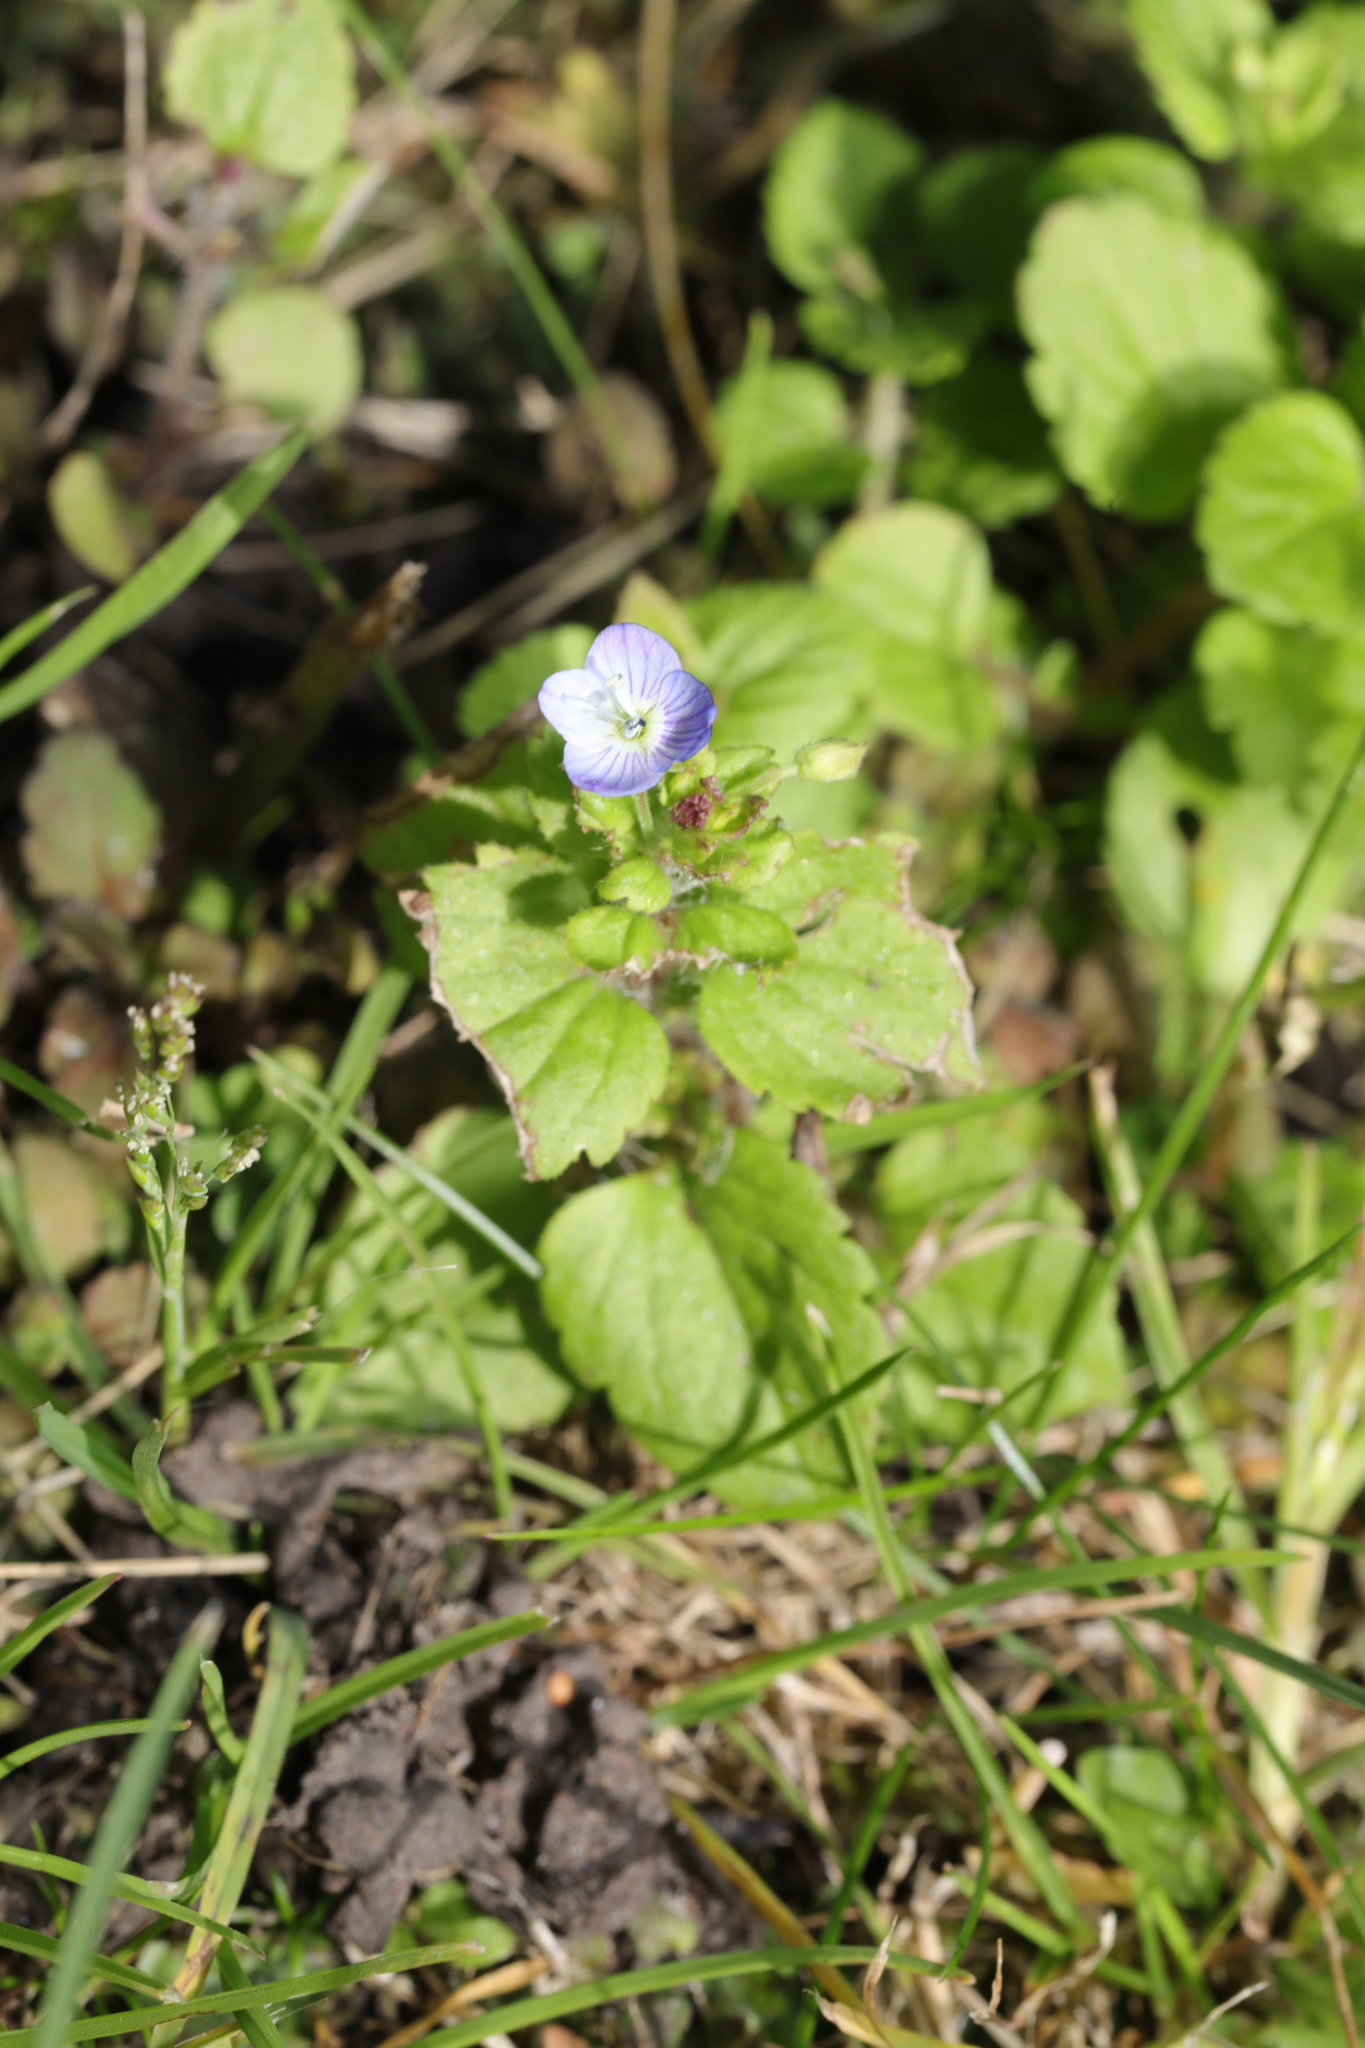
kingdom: Plantae
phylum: Tracheophyta
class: Magnoliopsida
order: Lamiales
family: Plantaginaceae
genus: Veronica
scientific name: Veronica persica
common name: Common field-speedwell
